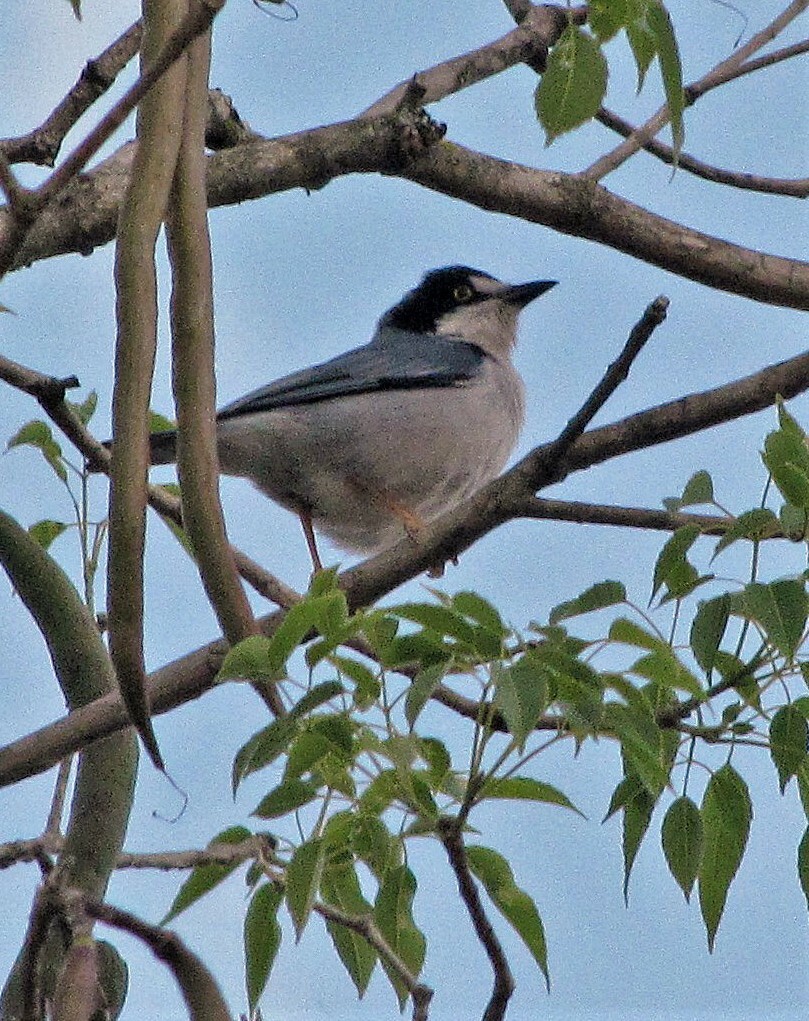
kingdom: Animalia
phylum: Chordata
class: Aves
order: Passeriformes
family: Thraupidae
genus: Nemosia
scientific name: Nemosia pileata
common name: Hooded tanager
